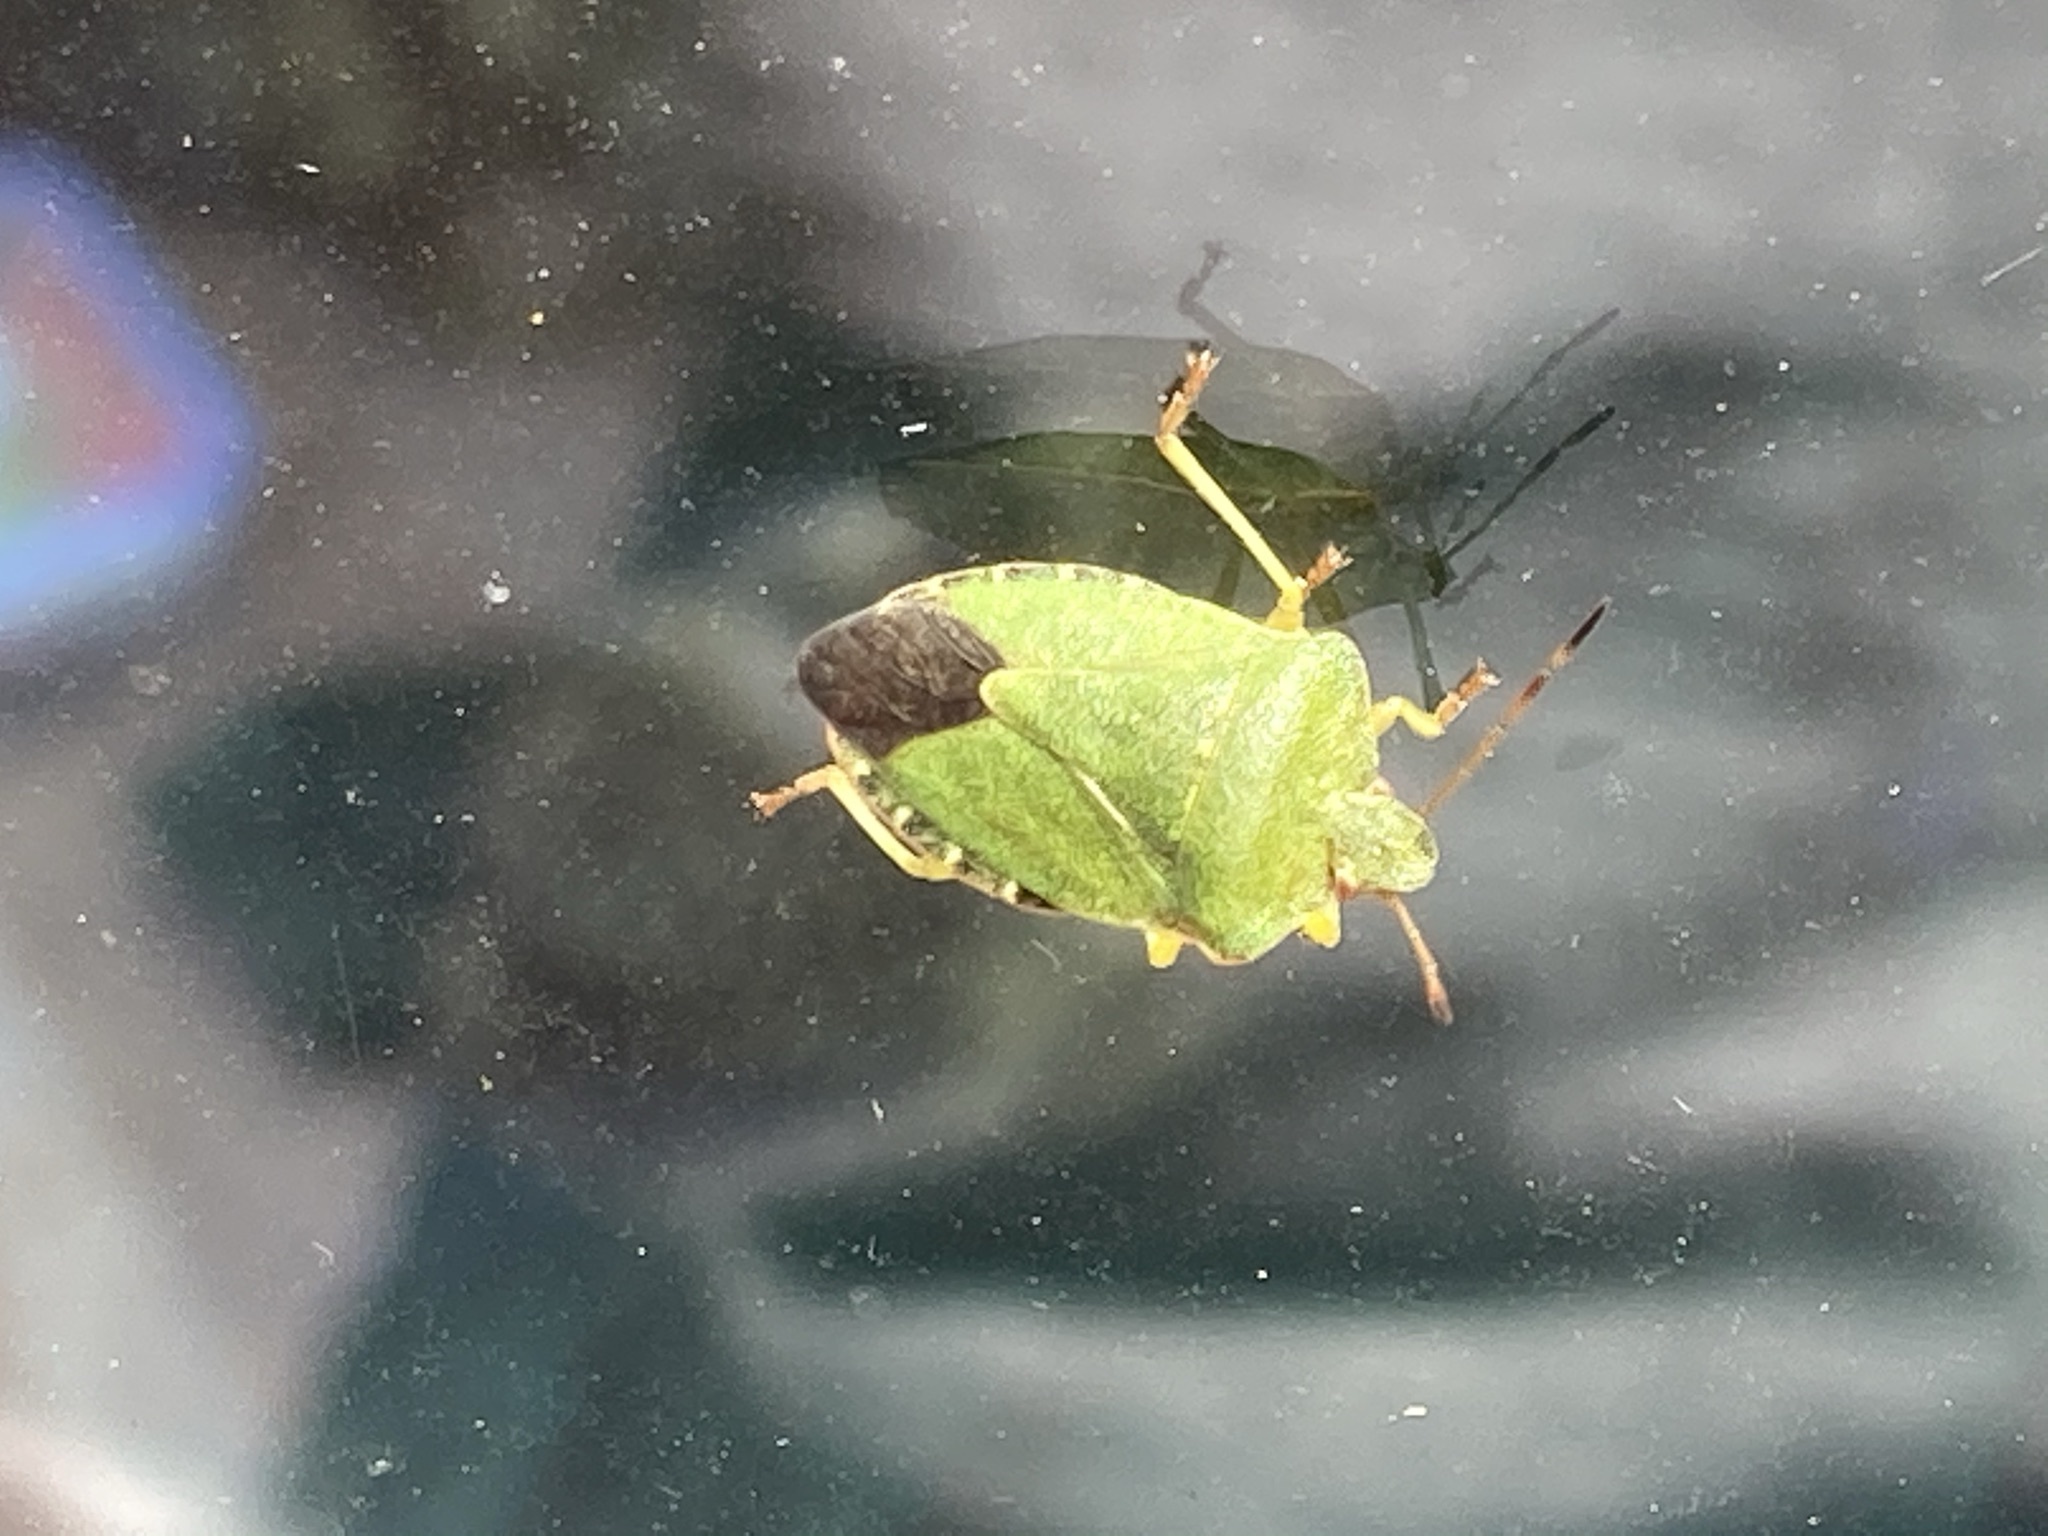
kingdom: Animalia
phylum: Arthropoda
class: Insecta
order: Hemiptera
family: Pentatomidae
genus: Palomena
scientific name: Palomena prasina
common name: Green shieldbug
